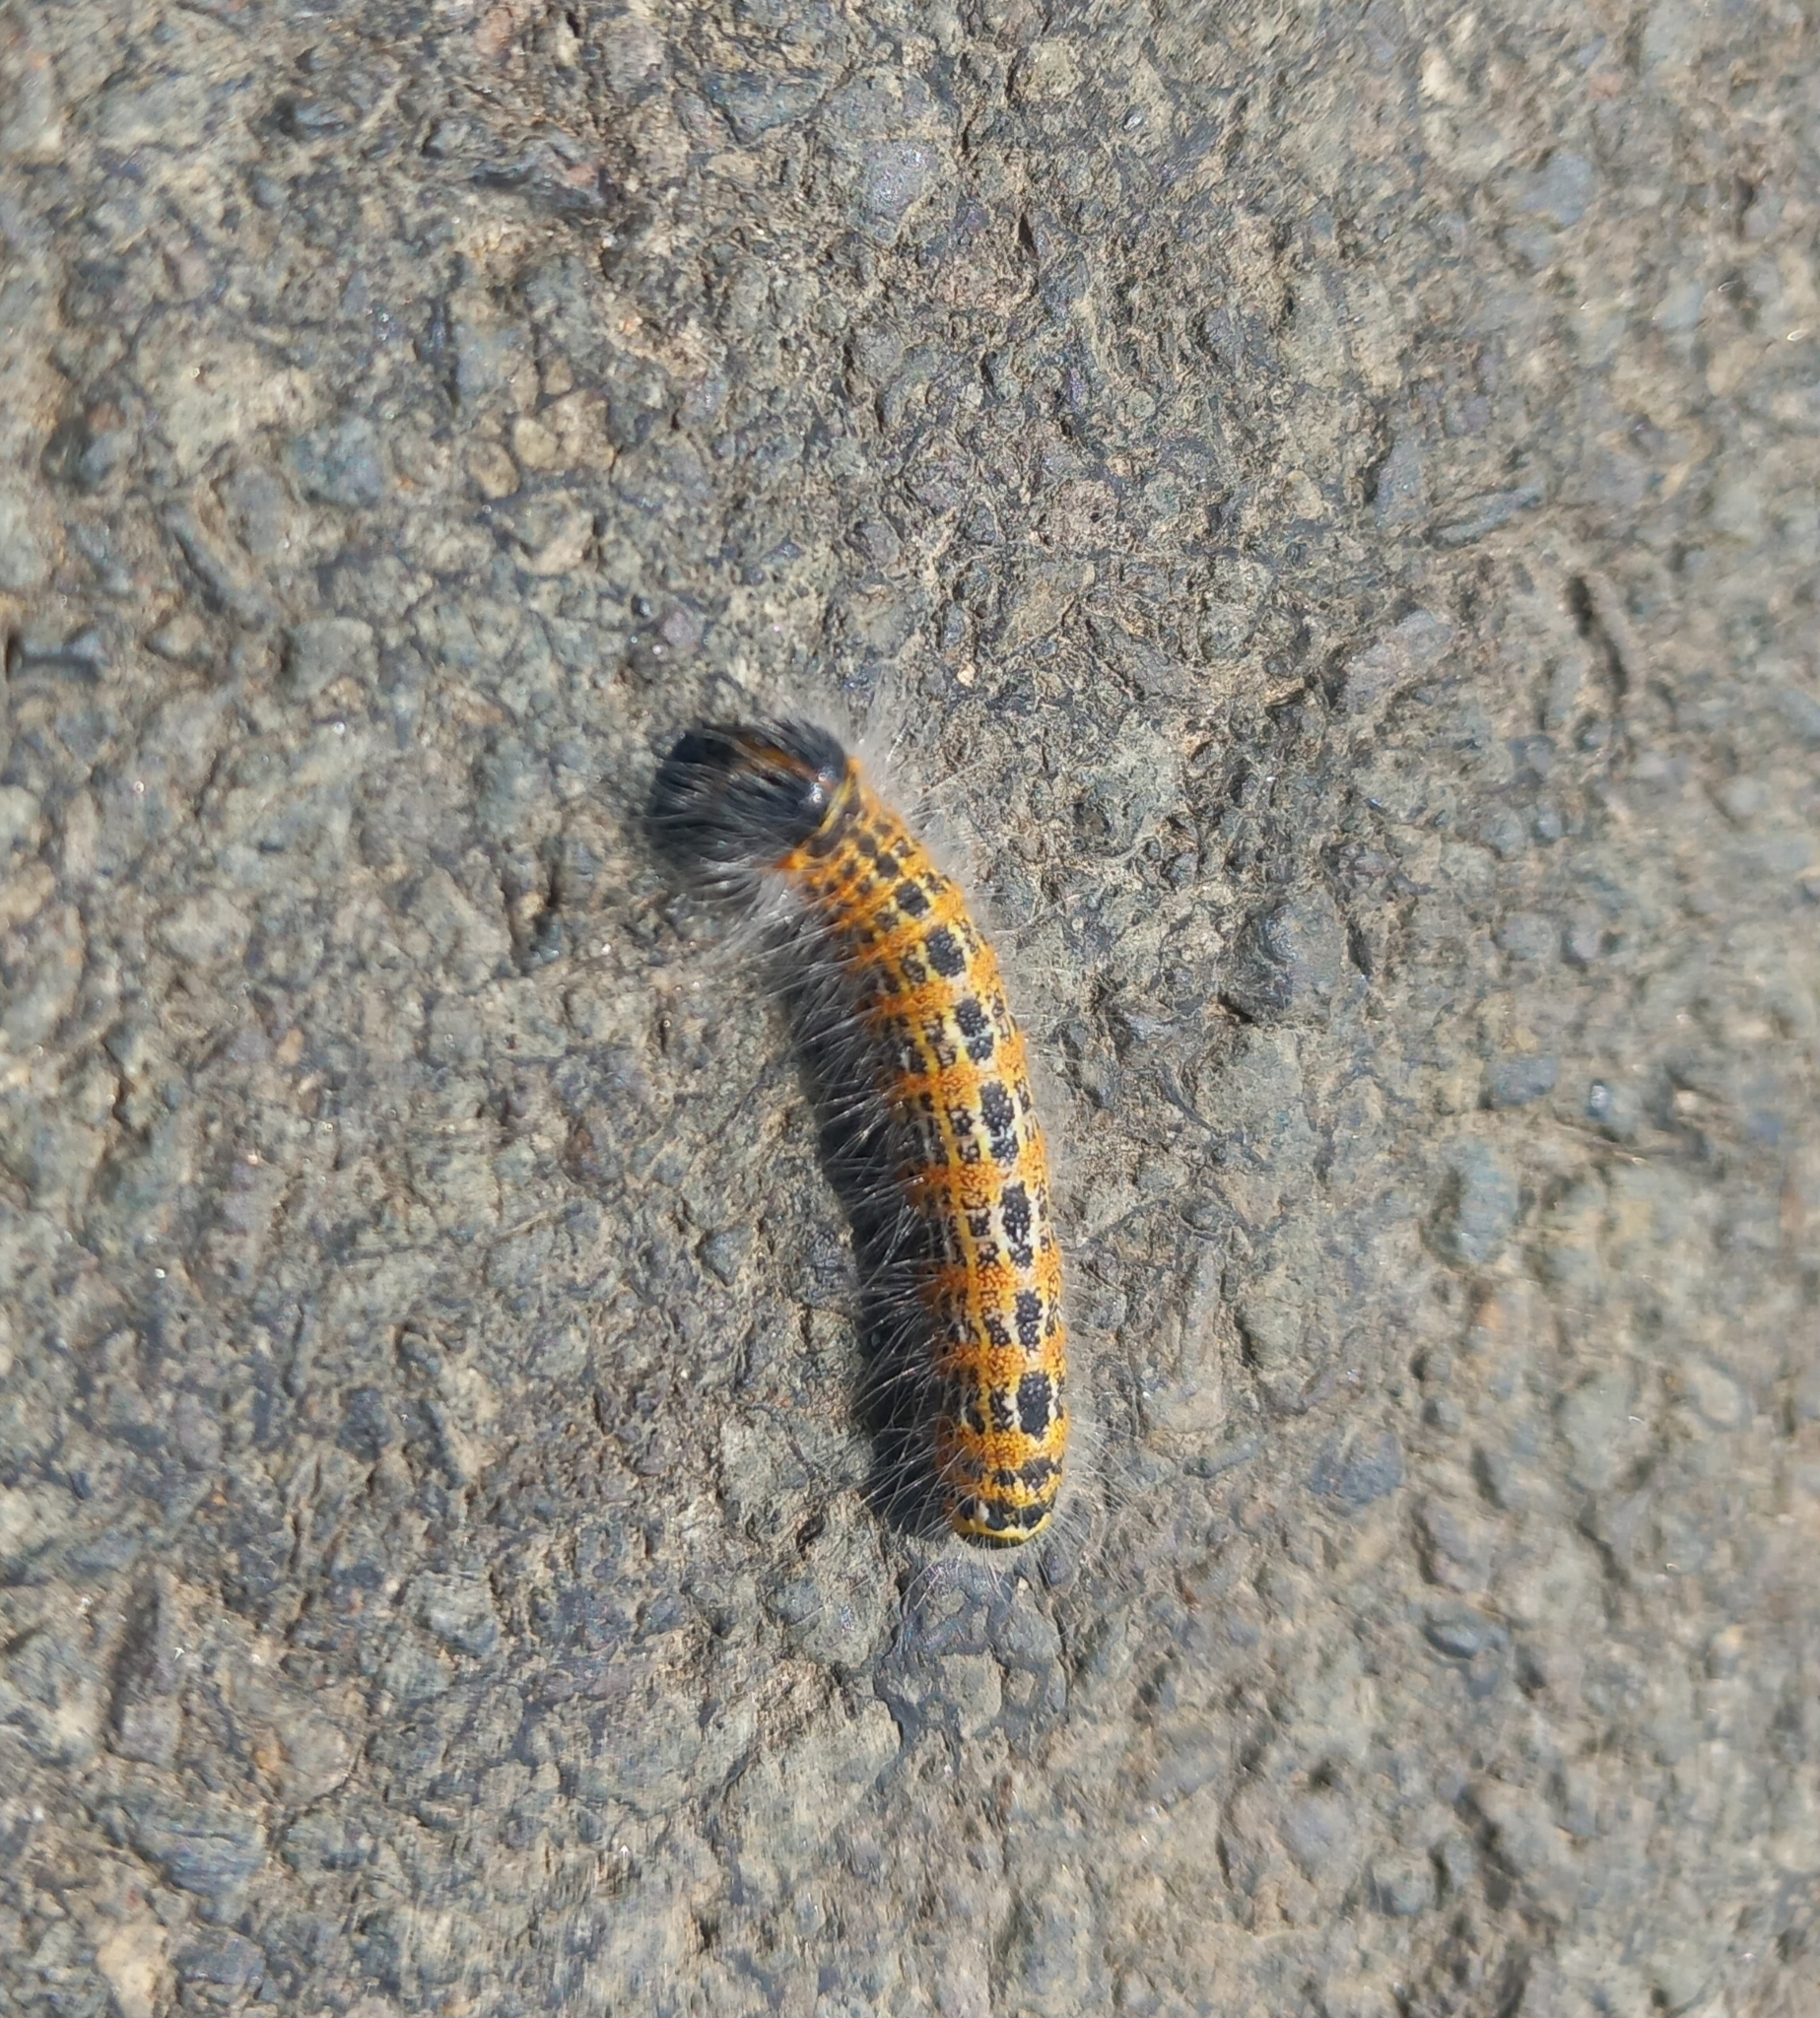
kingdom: Animalia
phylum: Arthropoda
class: Insecta
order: Lepidoptera
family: Notodontidae
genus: Phalera
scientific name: Phalera bucephala
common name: Buff-tip
